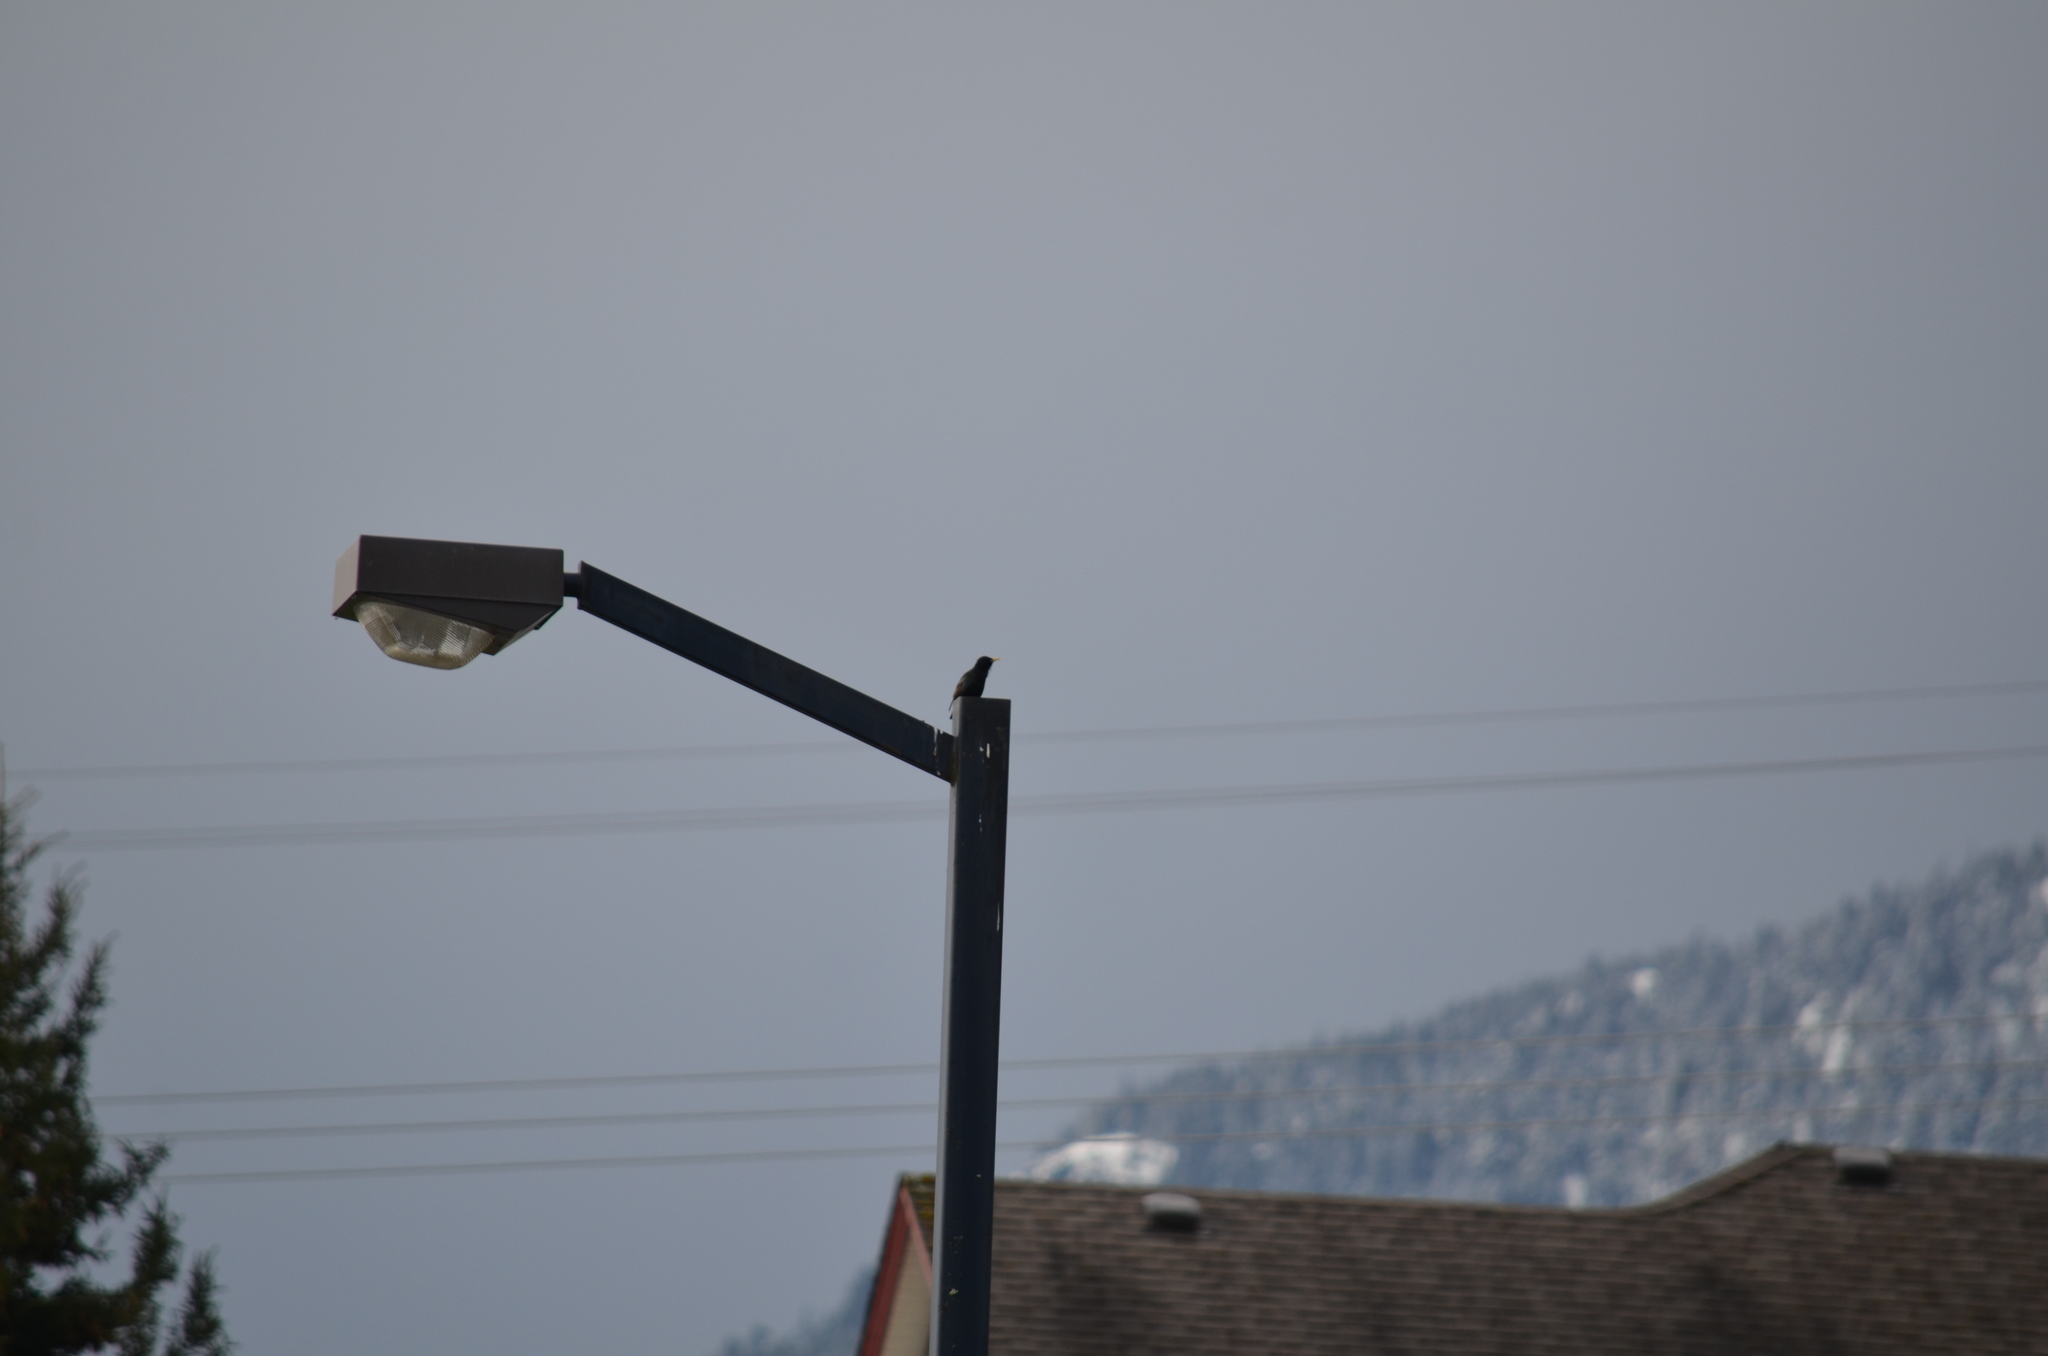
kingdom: Animalia
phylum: Chordata
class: Aves
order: Passeriformes
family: Sturnidae
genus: Sturnus
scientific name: Sturnus vulgaris
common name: Common starling
